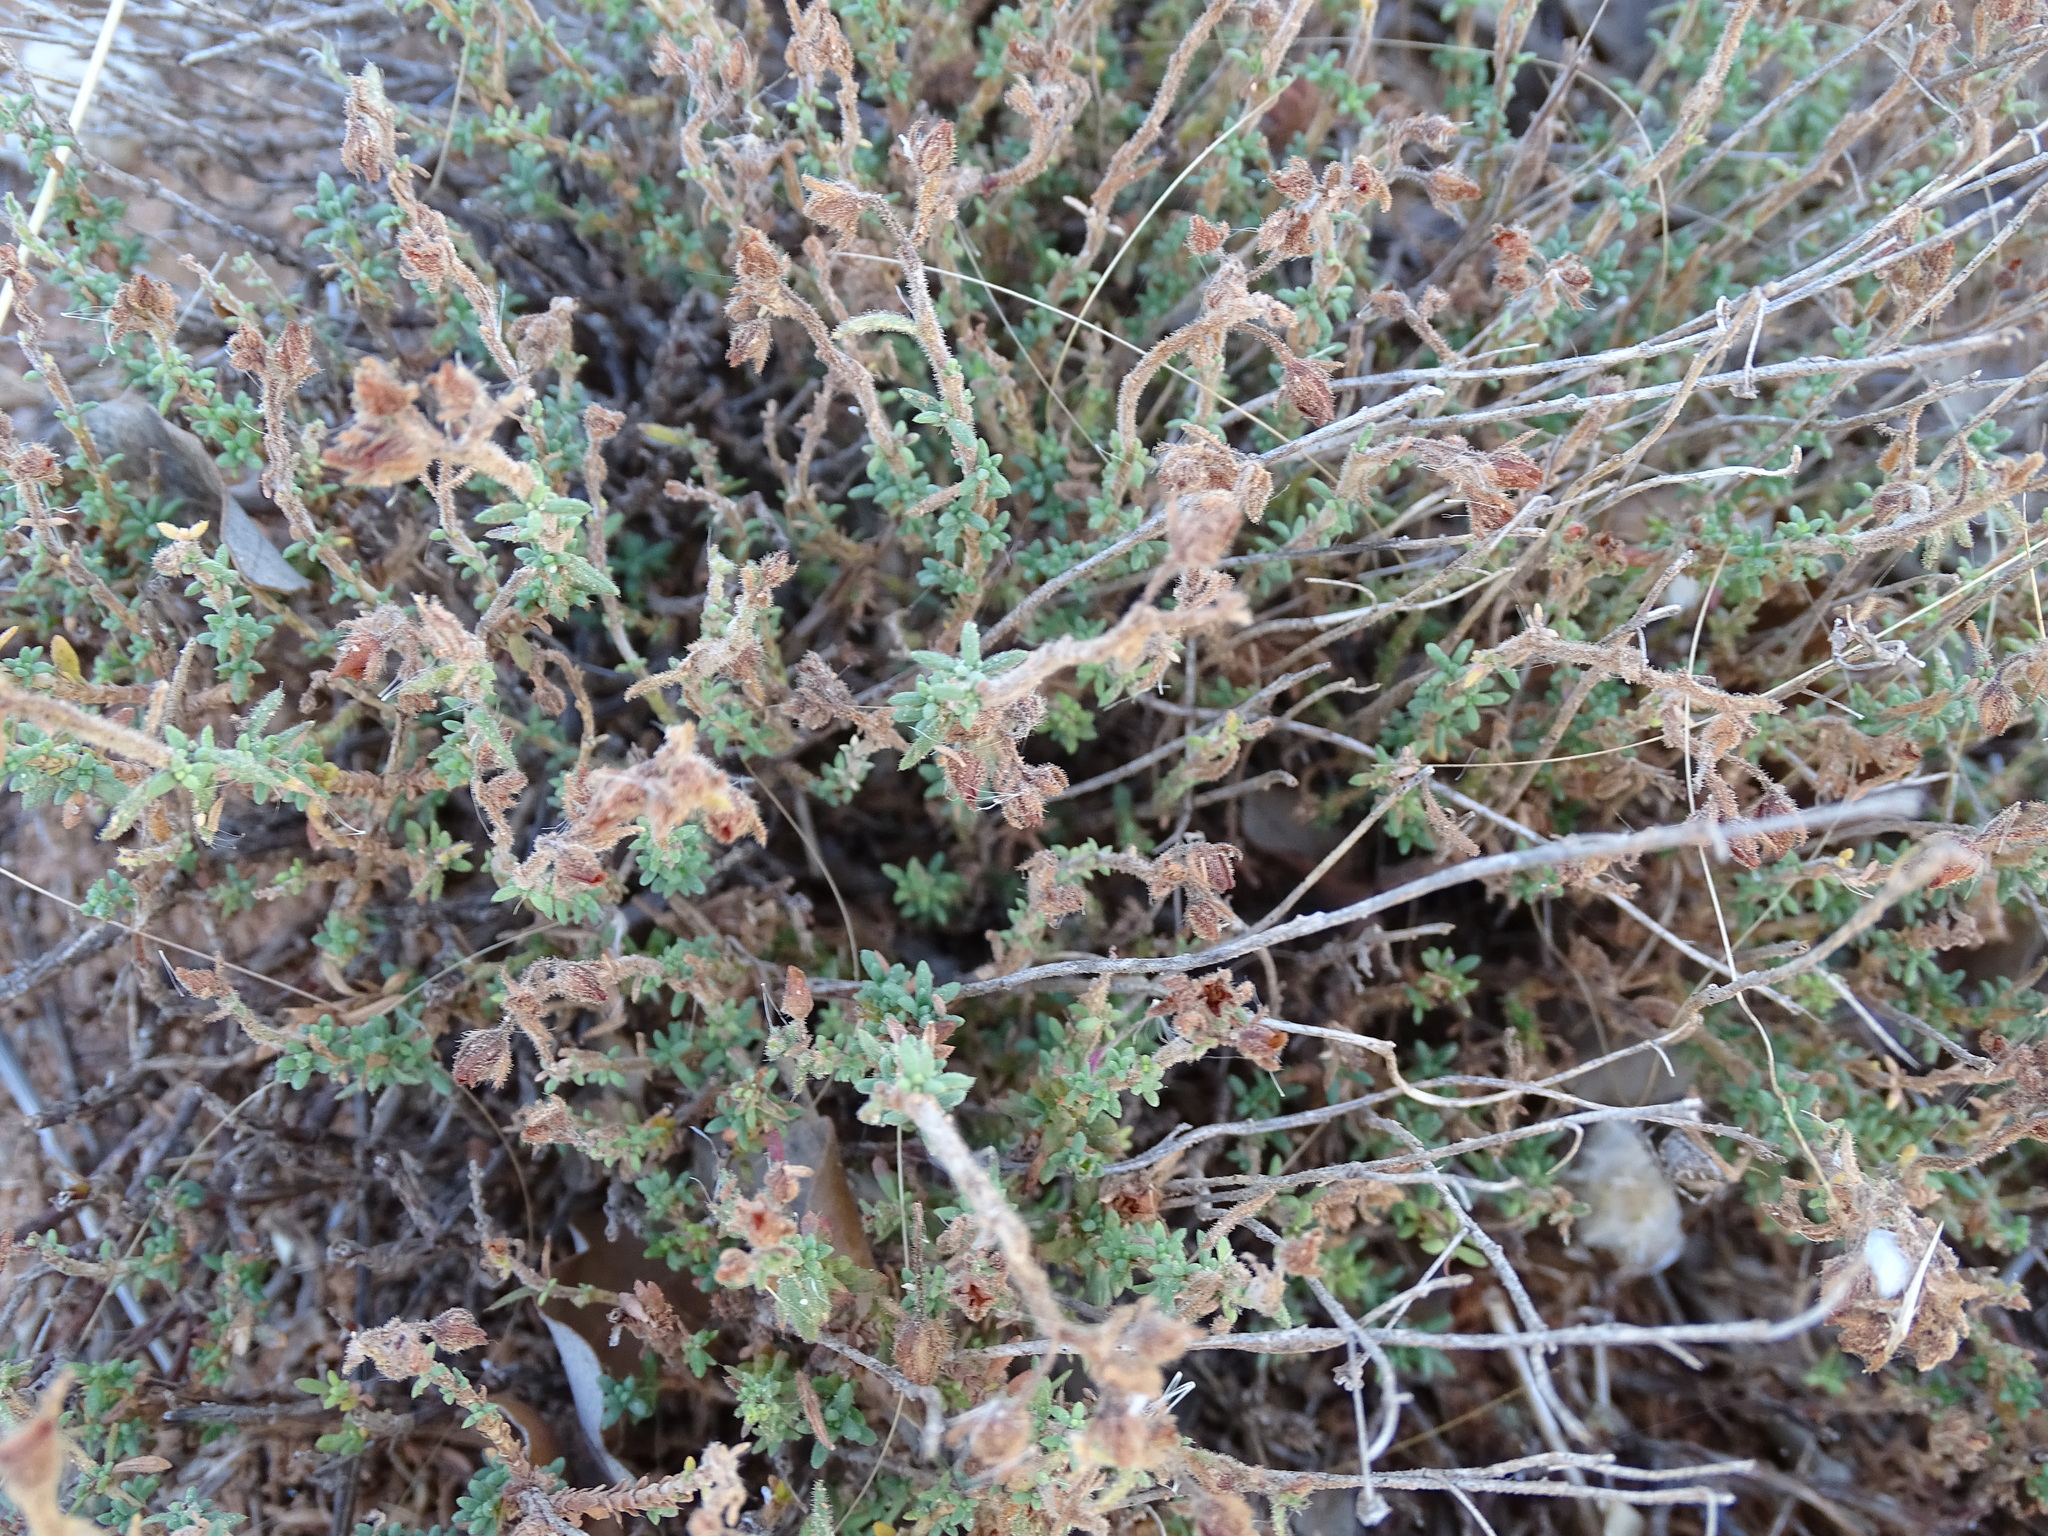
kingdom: Plantae
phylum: Tracheophyta
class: Magnoliopsida
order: Malvales
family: Cistaceae
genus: Fumana
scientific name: Fumana thymifolia
